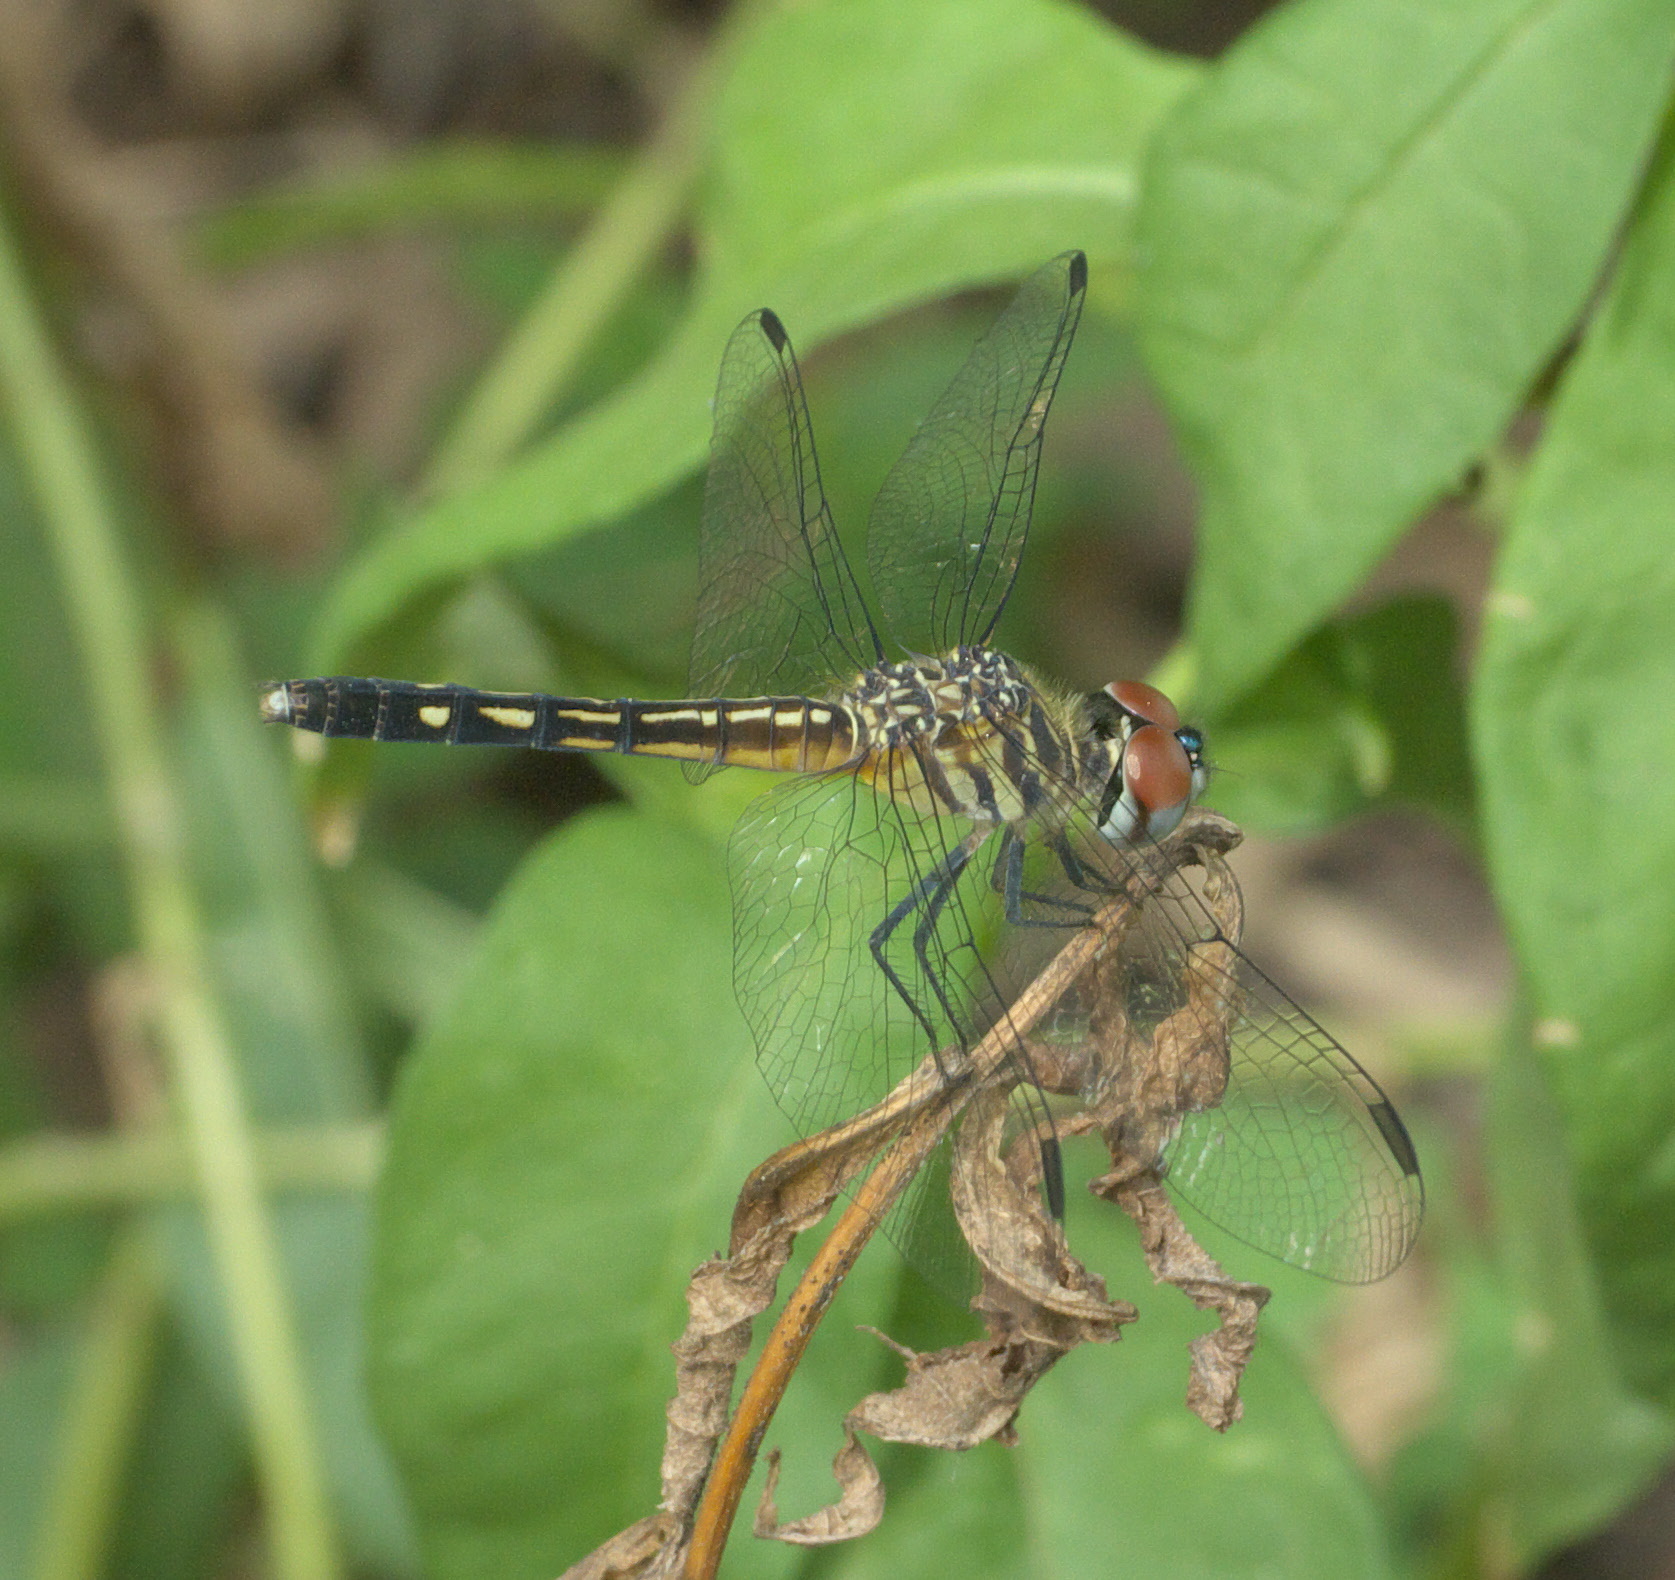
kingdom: Animalia
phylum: Arthropoda
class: Insecta
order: Odonata
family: Libellulidae
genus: Pachydiplax
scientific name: Pachydiplax longipennis
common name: Blue dasher
